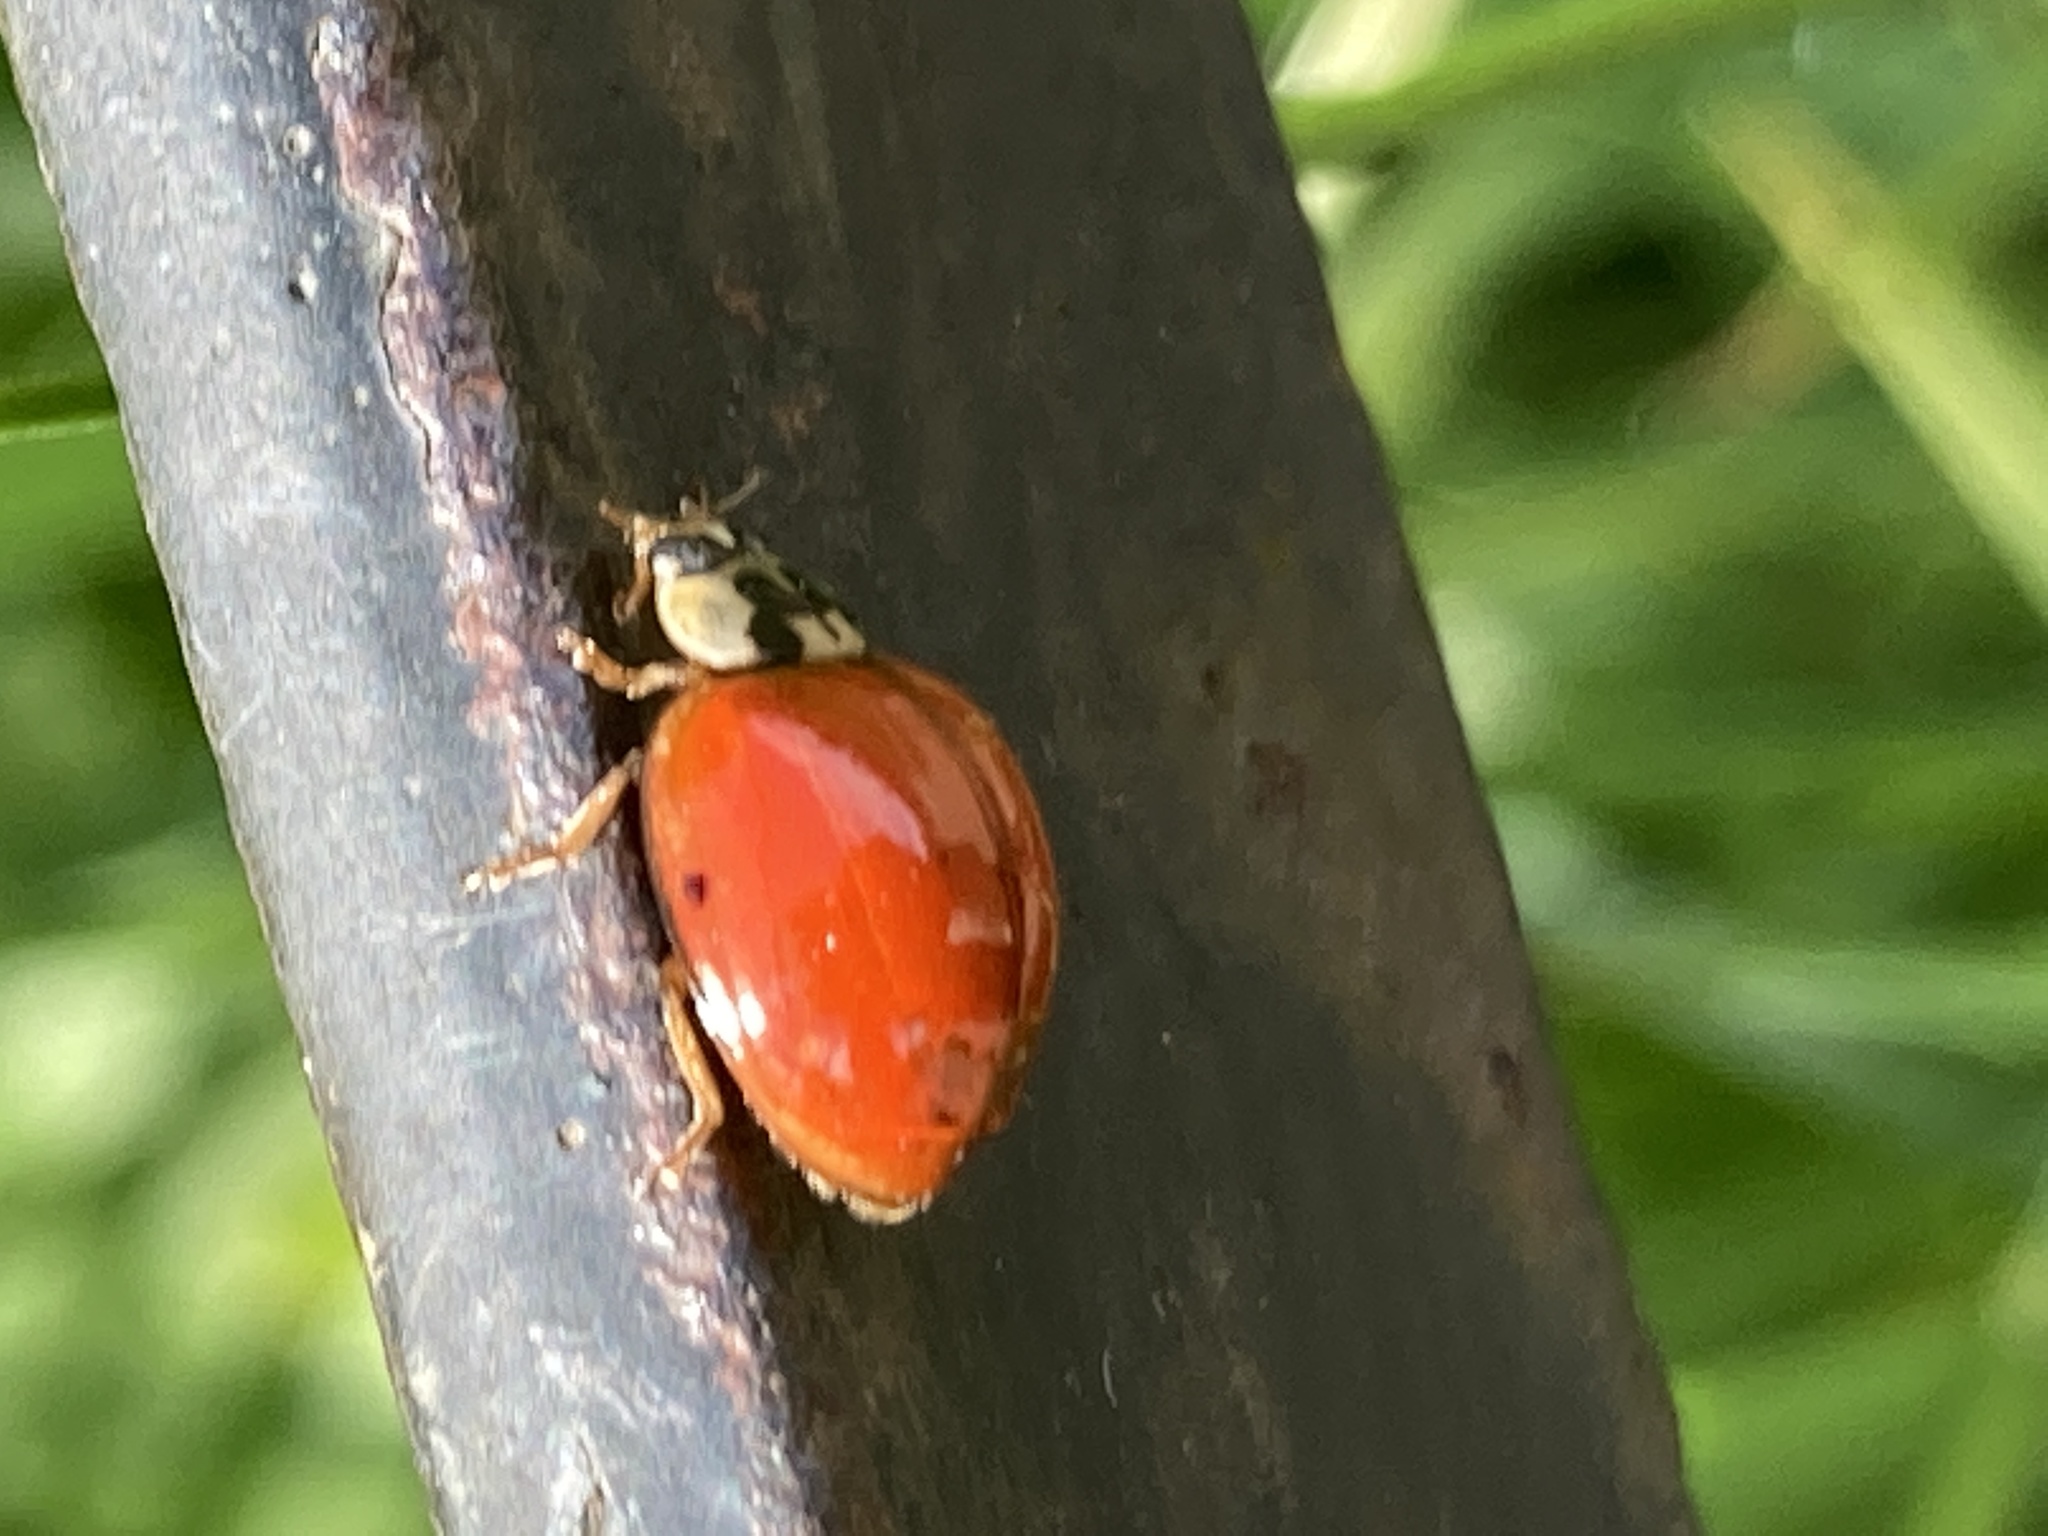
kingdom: Animalia
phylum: Arthropoda
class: Insecta
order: Coleoptera
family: Coccinellidae
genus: Harmonia
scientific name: Harmonia axyridis
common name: Harlequin ladybird
